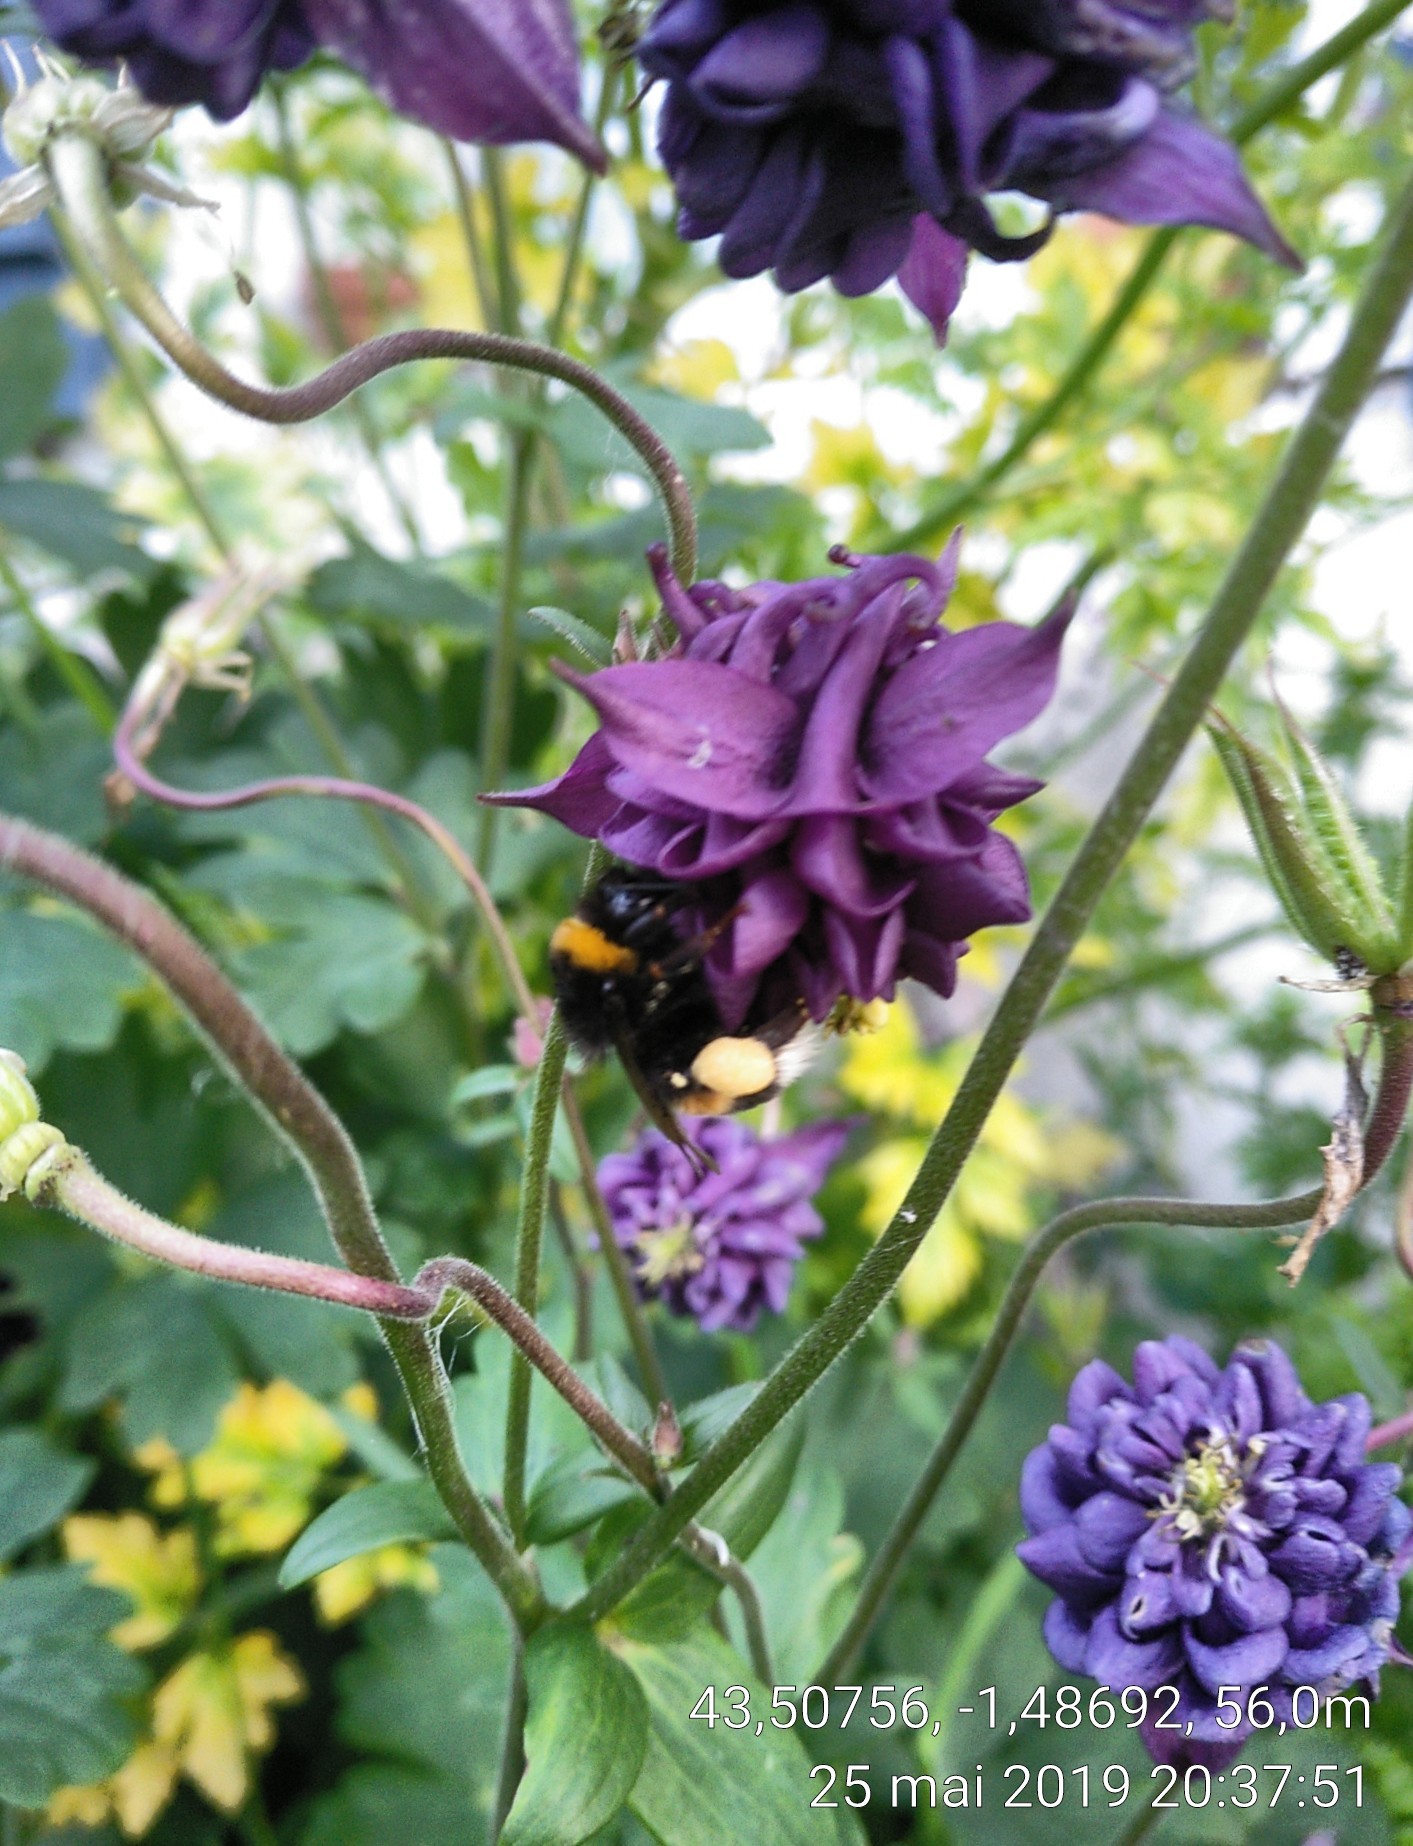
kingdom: Animalia
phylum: Arthropoda
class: Insecta
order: Hymenoptera
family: Apidae
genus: Bombus
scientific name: Bombus terrestris
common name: Buff-tailed bumblebee
